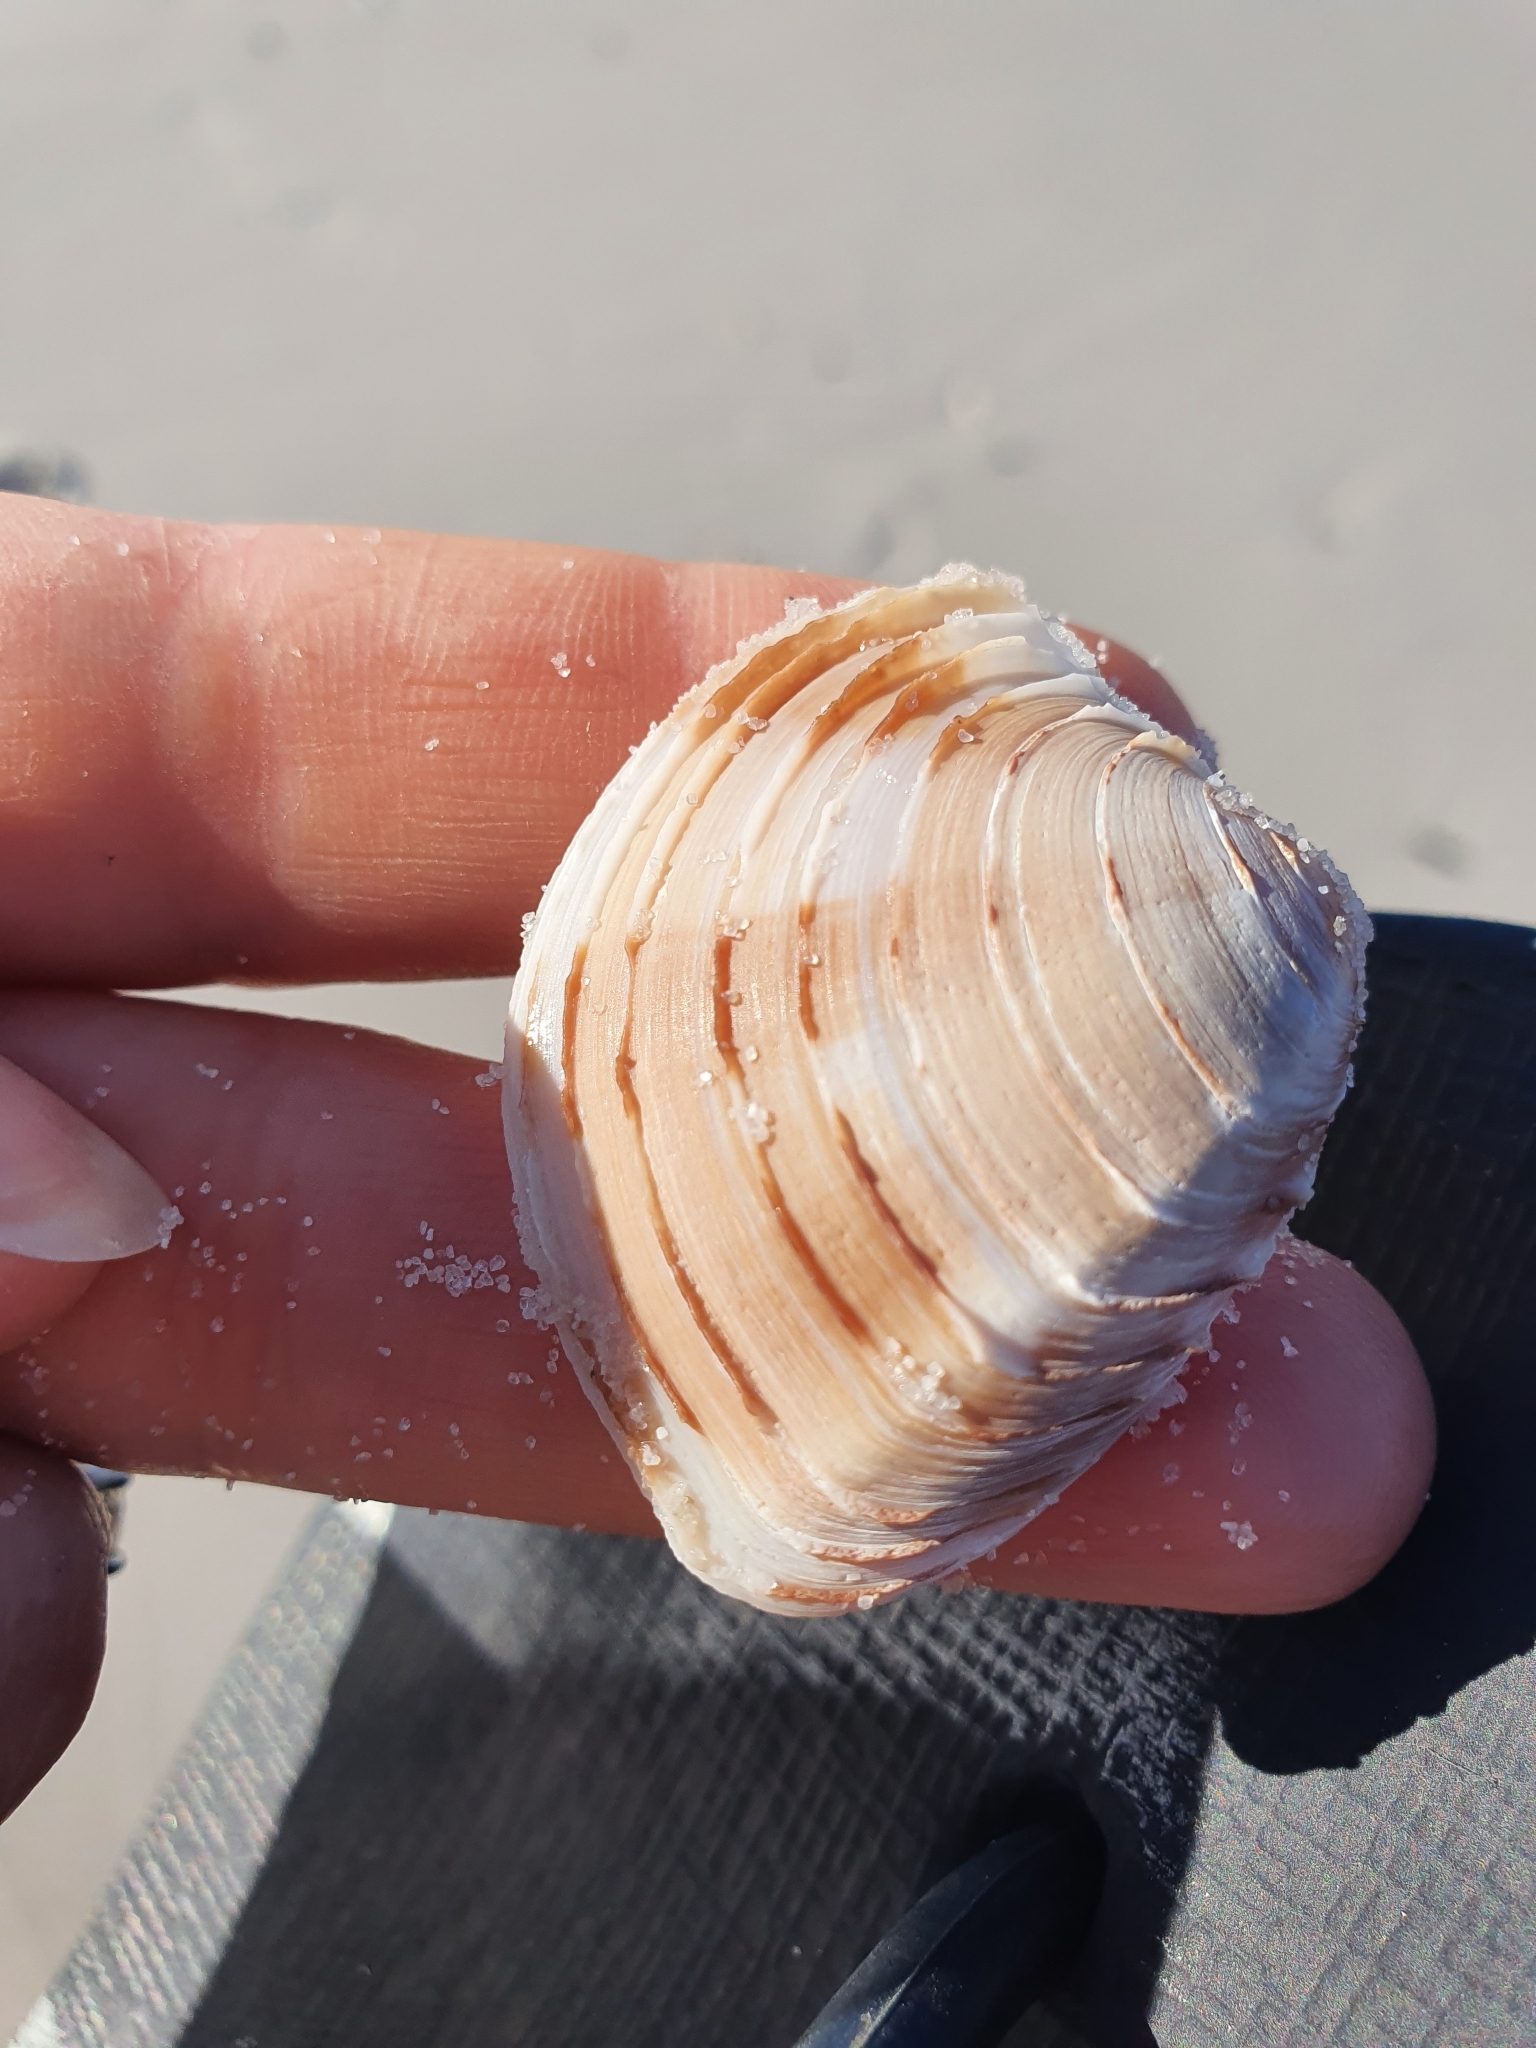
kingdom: Animalia
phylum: Mollusca
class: Bivalvia
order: Venerida
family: Veneridae
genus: Bassina
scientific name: Bassina jacksonii
